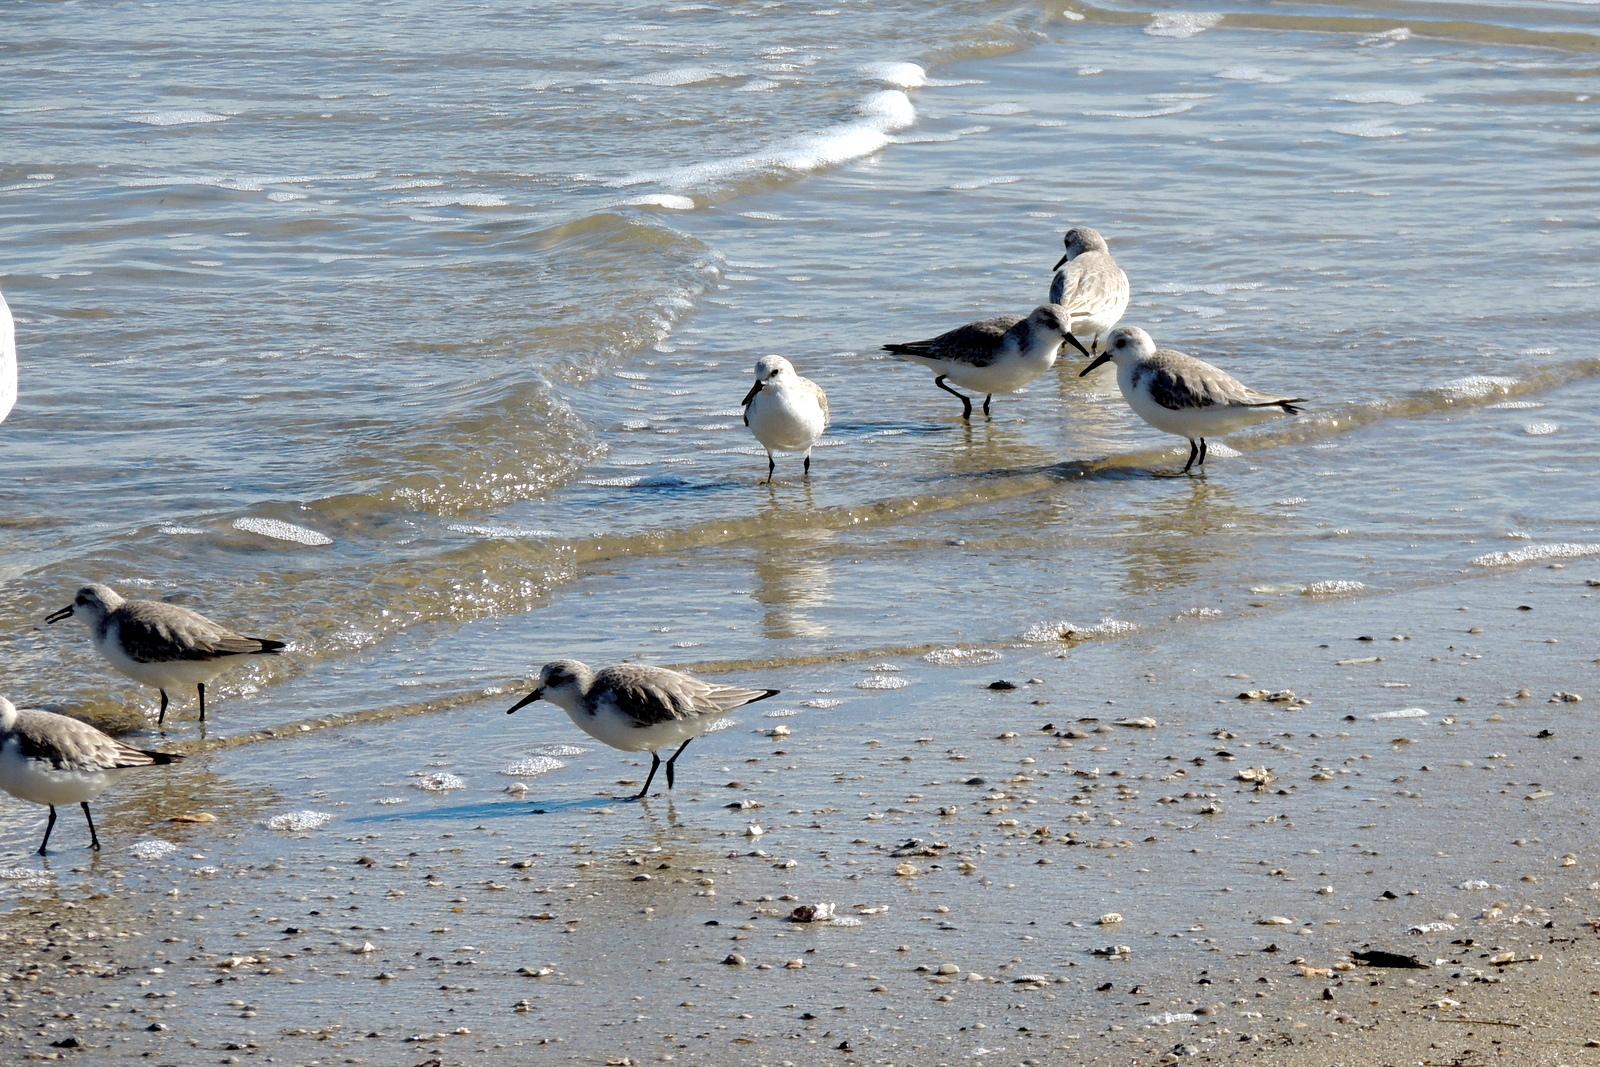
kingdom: Animalia
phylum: Chordata
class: Aves
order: Charadriiformes
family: Scolopacidae
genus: Calidris
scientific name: Calidris alba
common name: Sanderling
